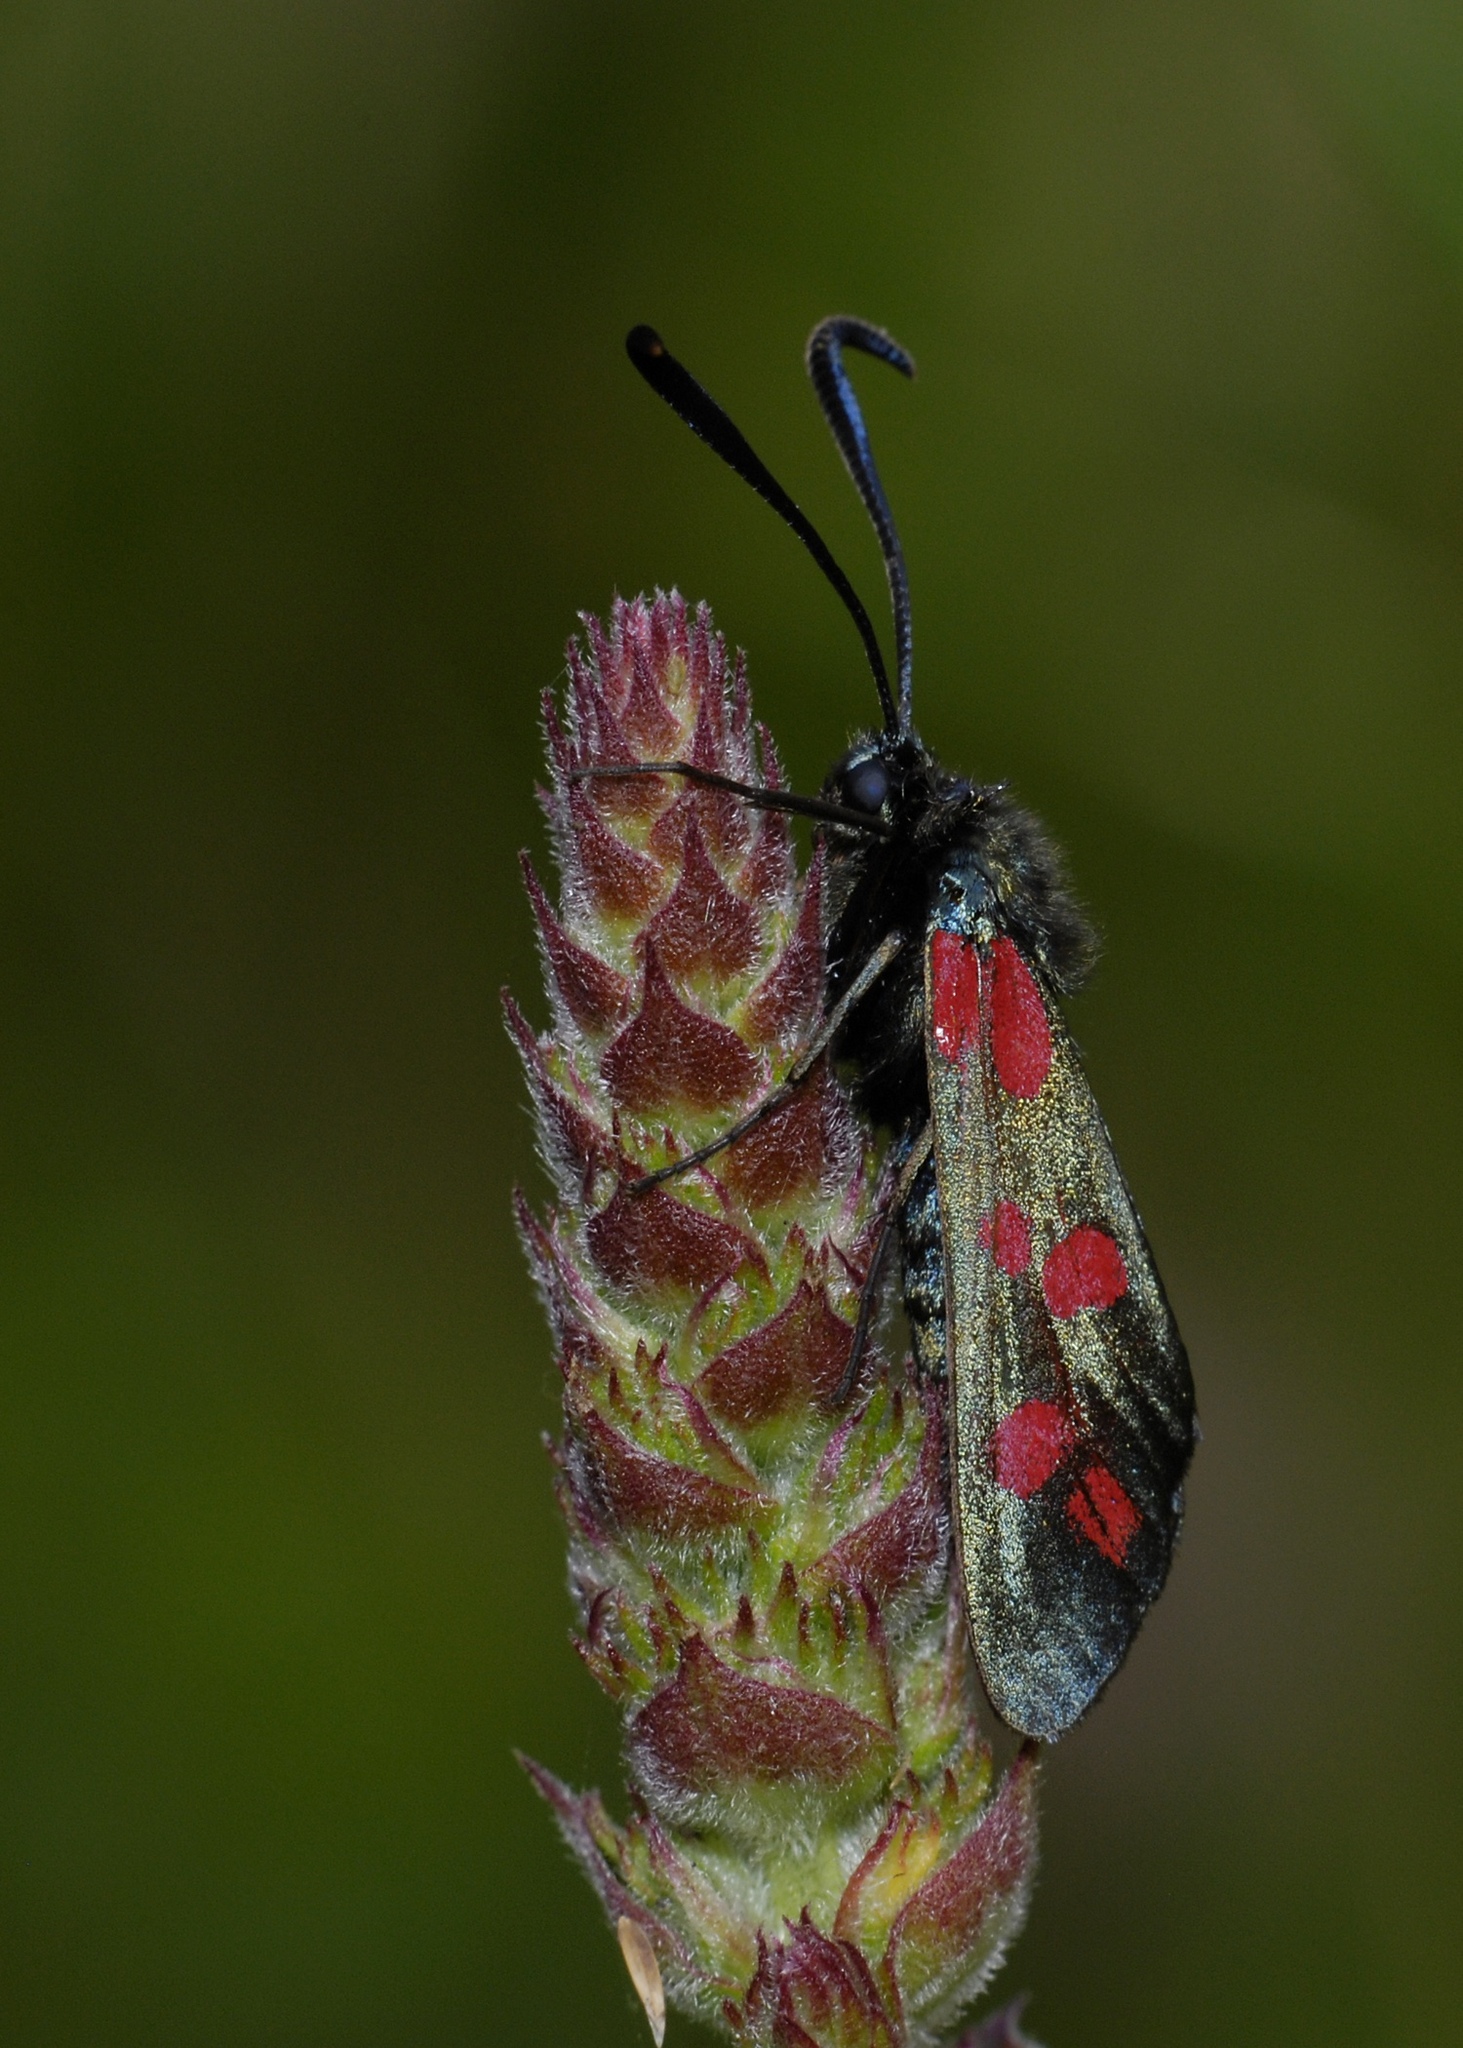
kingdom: Animalia
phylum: Arthropoda
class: Insecta
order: Lepidoptera
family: Zygaenidae
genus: Zygaena
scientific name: Zygaena filipendulae
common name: Six-spot burnet
